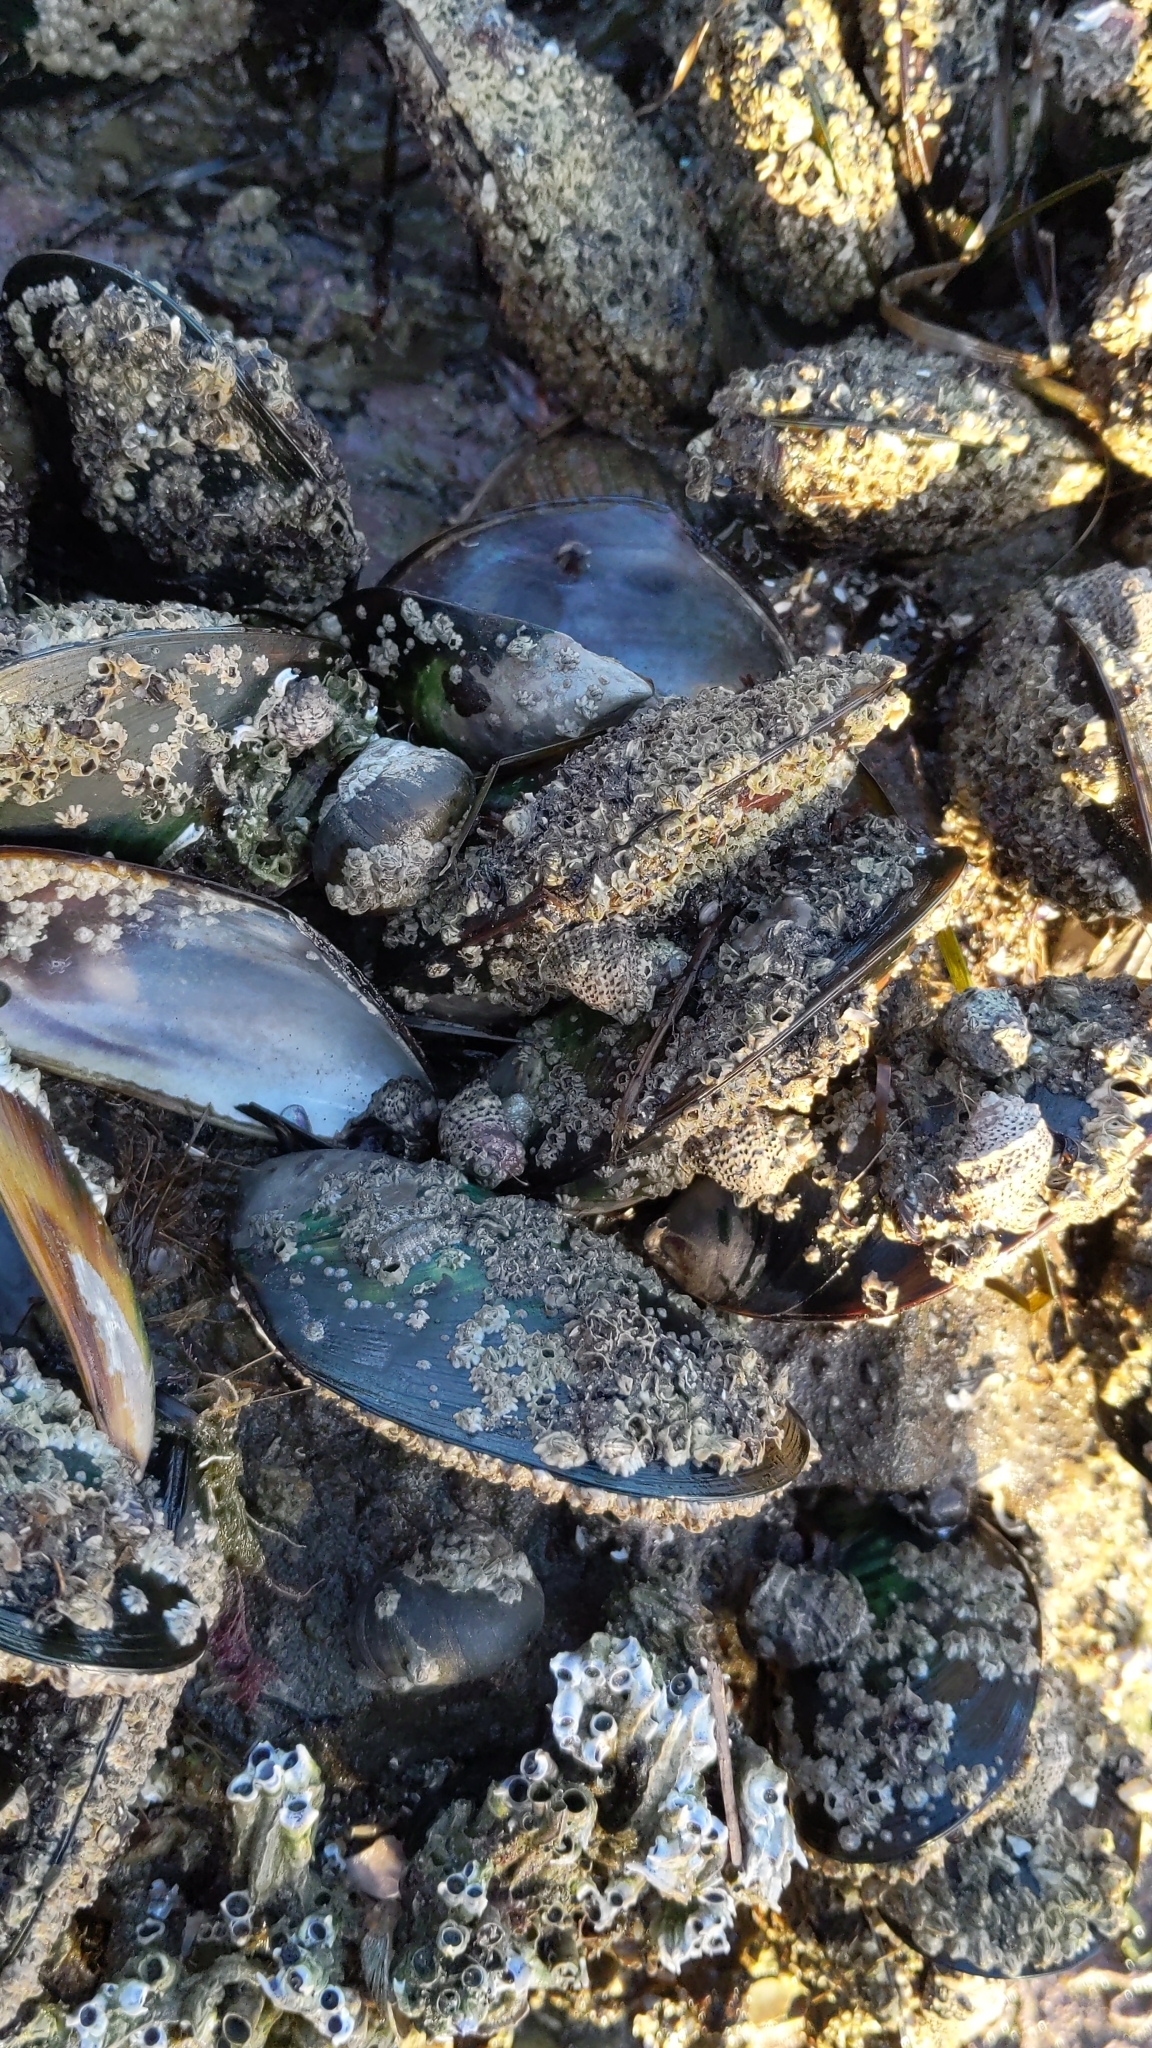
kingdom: Animalia
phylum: Mollusca
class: Bivalvia
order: Mytilida
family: Mytilidae
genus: Perna
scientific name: Perna canaliculus
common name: New zealand greenshelltm
